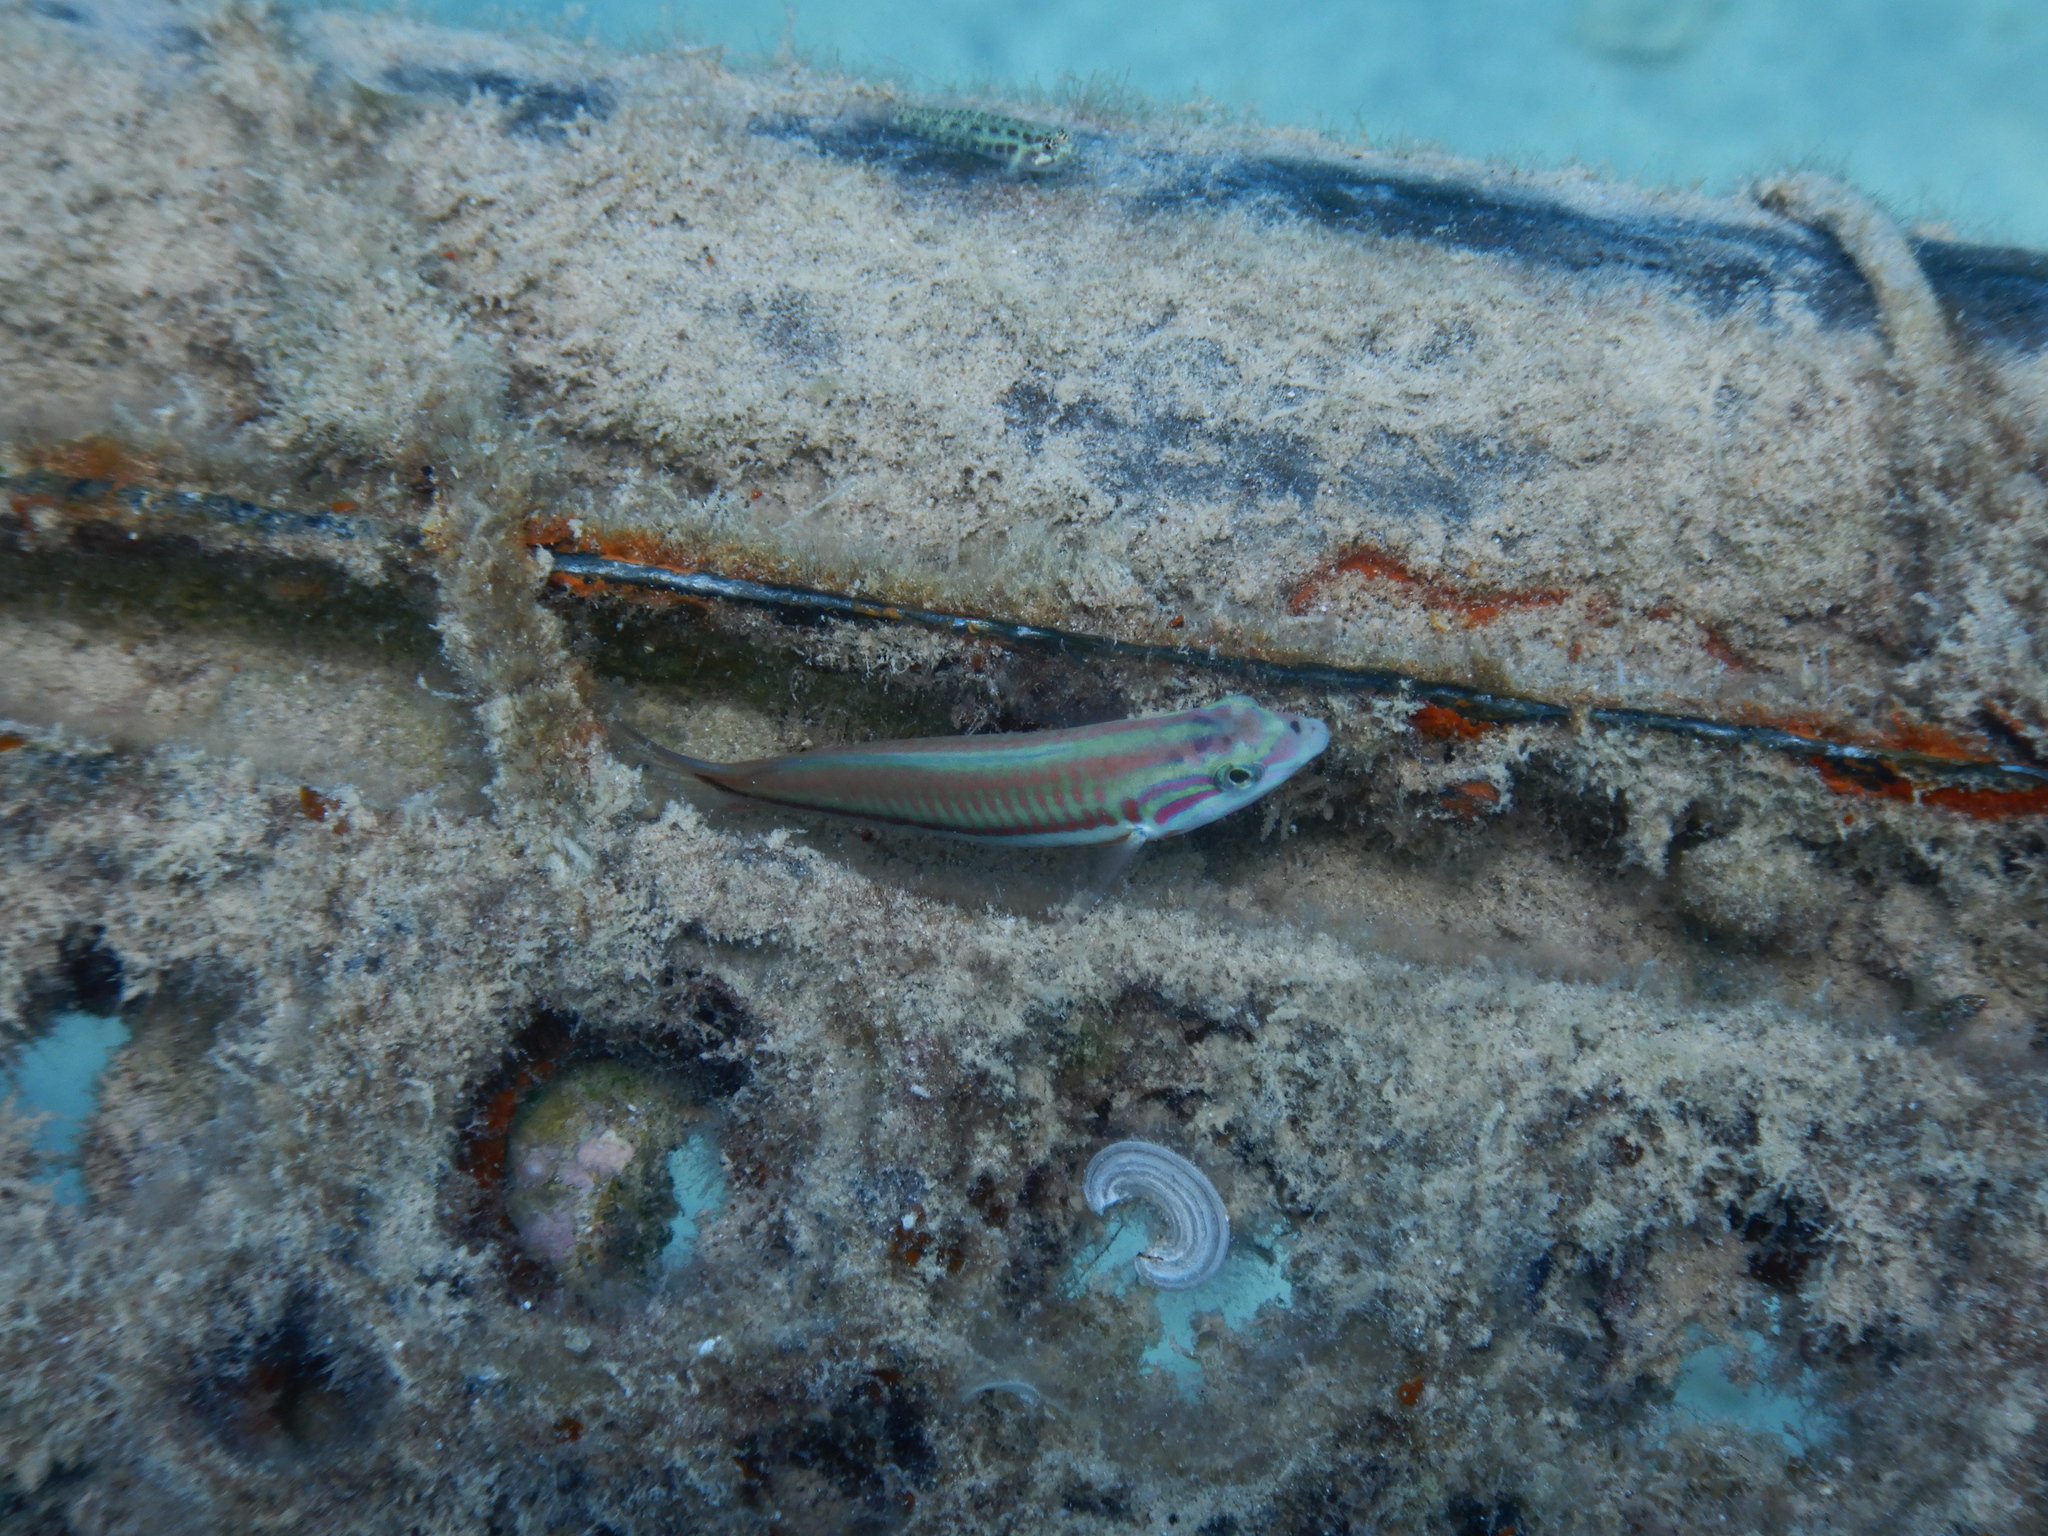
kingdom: Animalia
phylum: Chordata
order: Perciformes
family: Labridae
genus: Thalassoma
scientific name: Thalassoma rueppellii
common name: Klunzinger's wrasse
